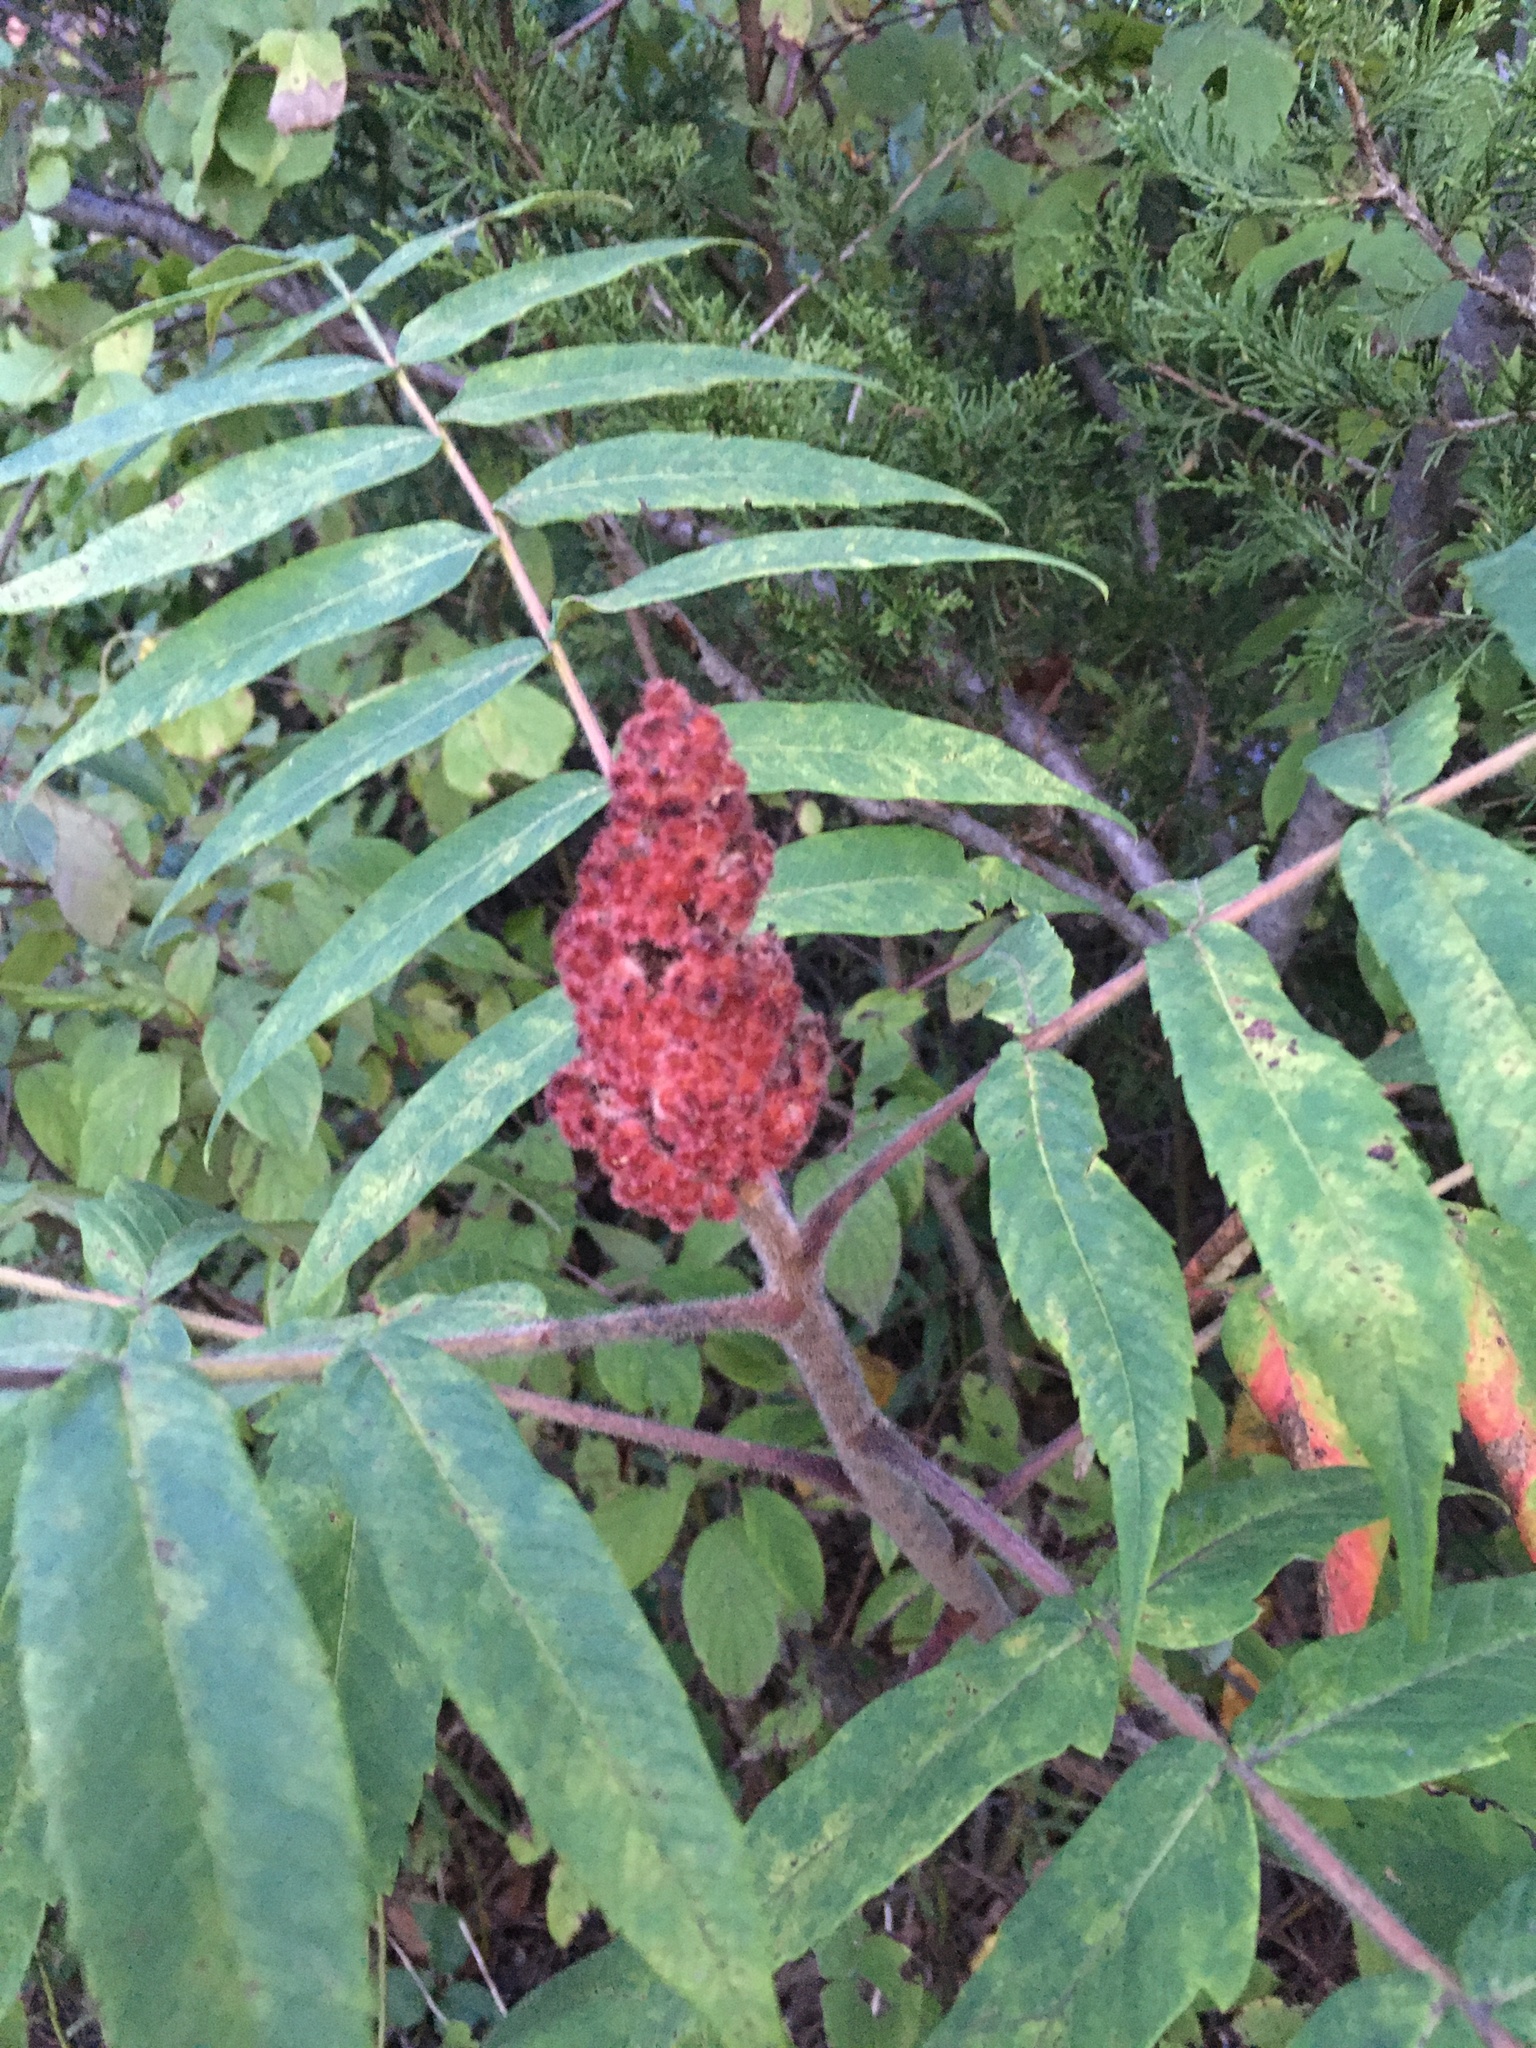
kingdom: Plantae
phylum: Tracheophyta
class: Magnoliopsida
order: Sapindales
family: Anacardiaceae
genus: Rhus
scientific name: Rhus typhina
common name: Staghorn sumac
